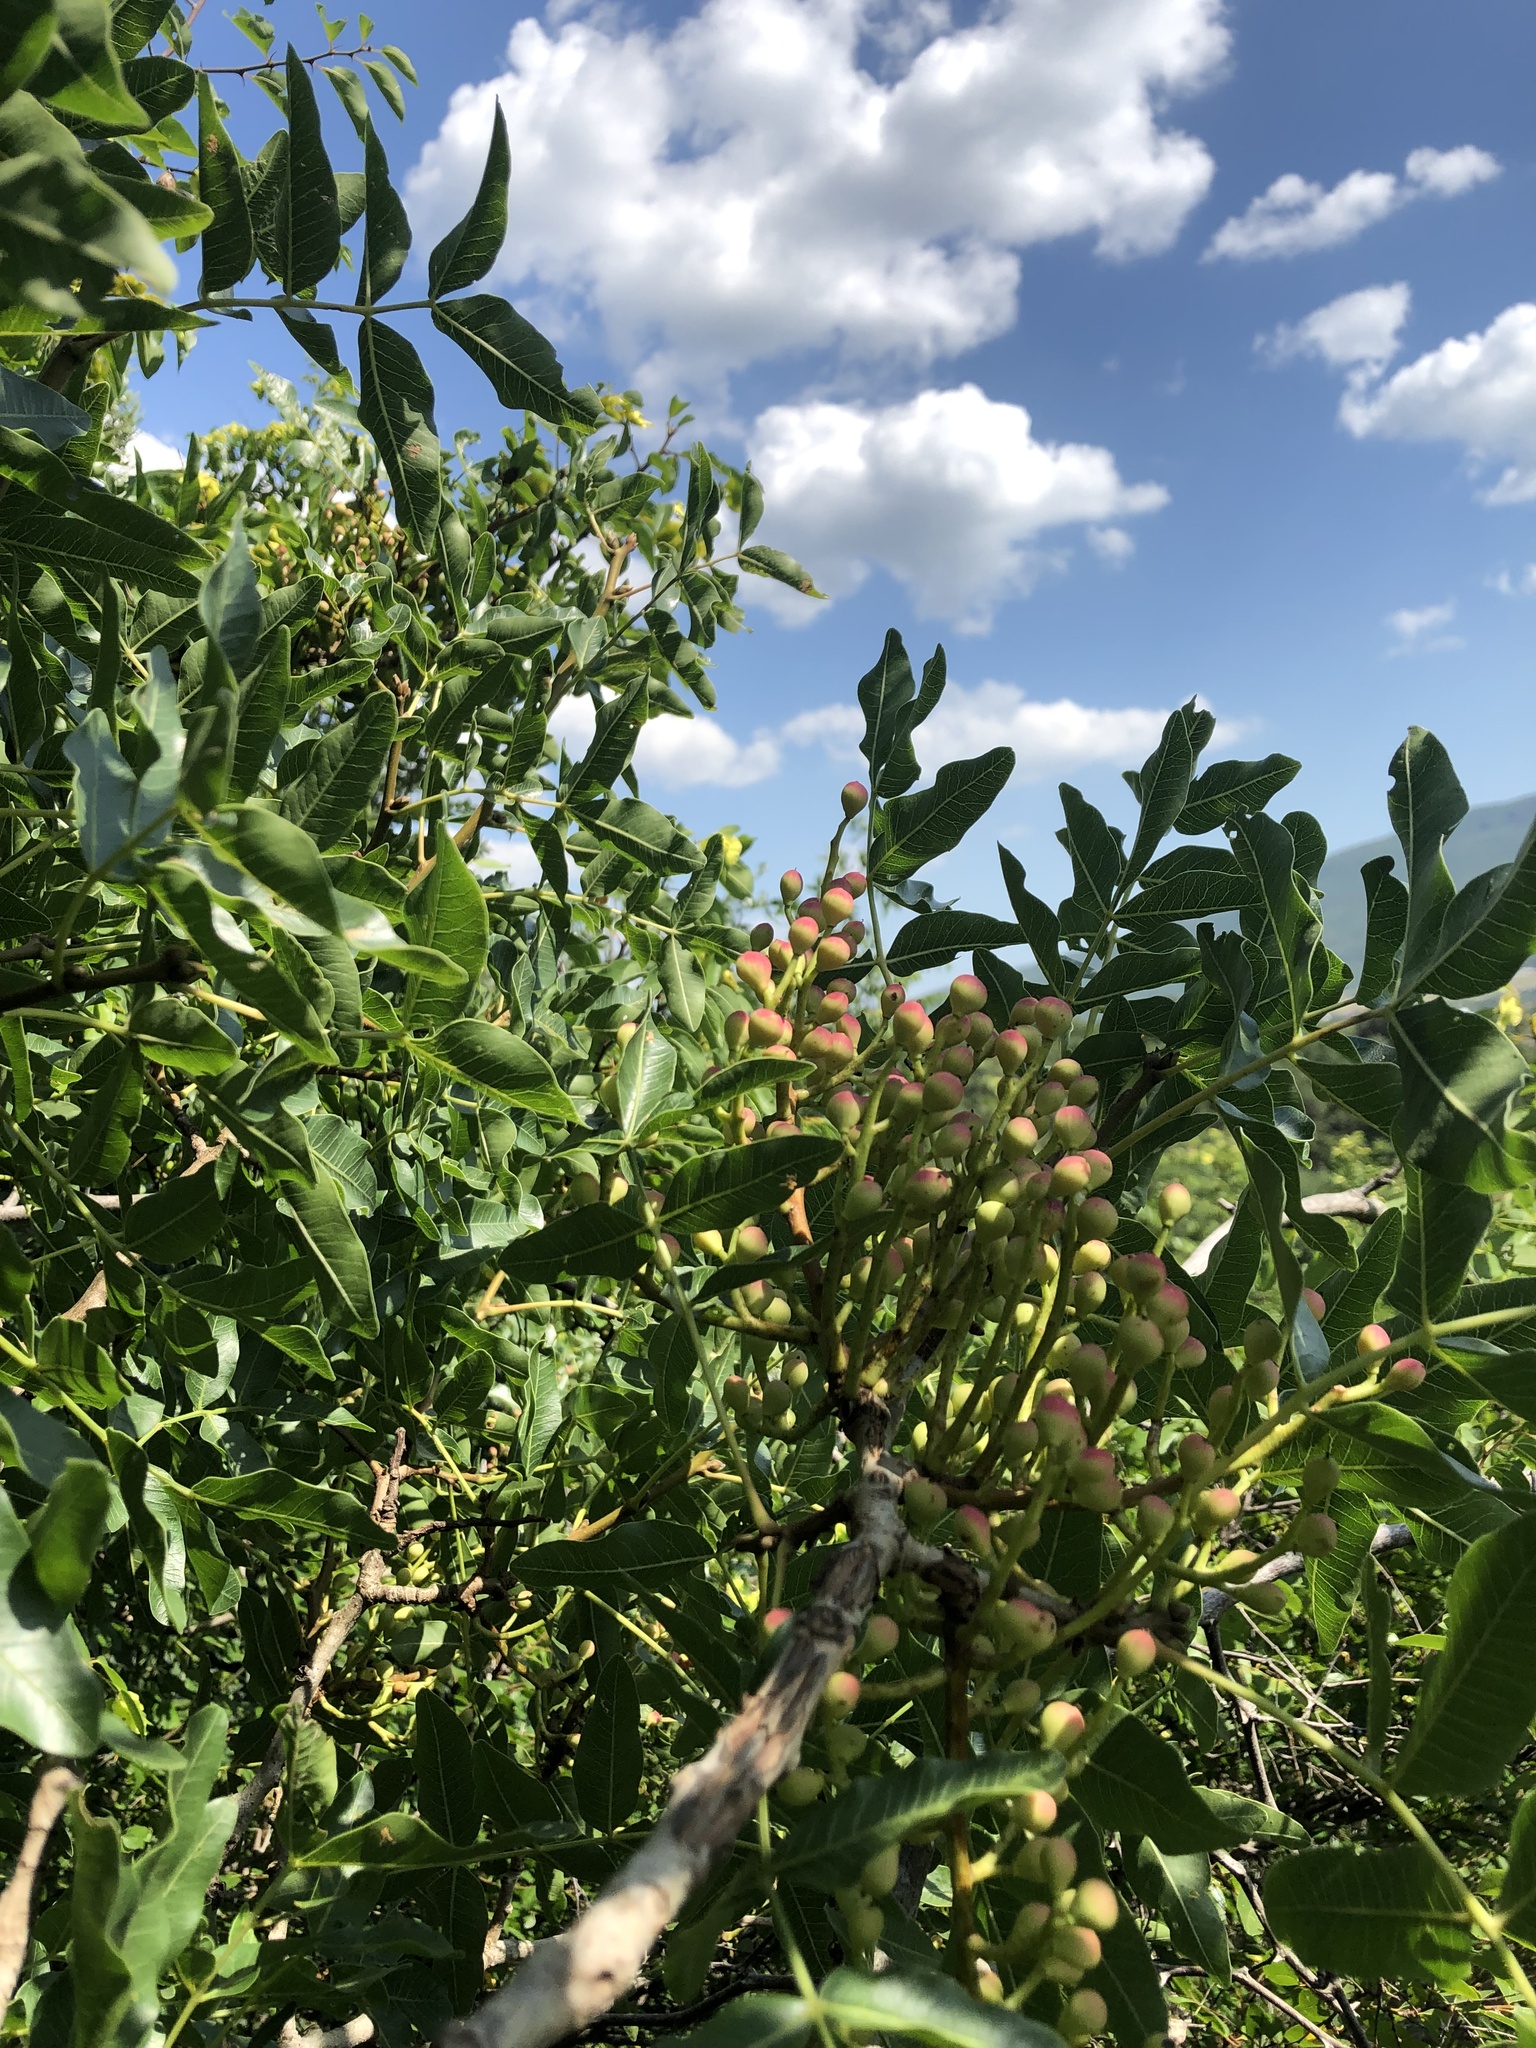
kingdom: Plantae
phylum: Tracheophyta
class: Magnoliopsida
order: Sapindales
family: Anacardiaceae
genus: Pistacia
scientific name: Pistacia atlantica
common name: Mt. atlas mastic tree
